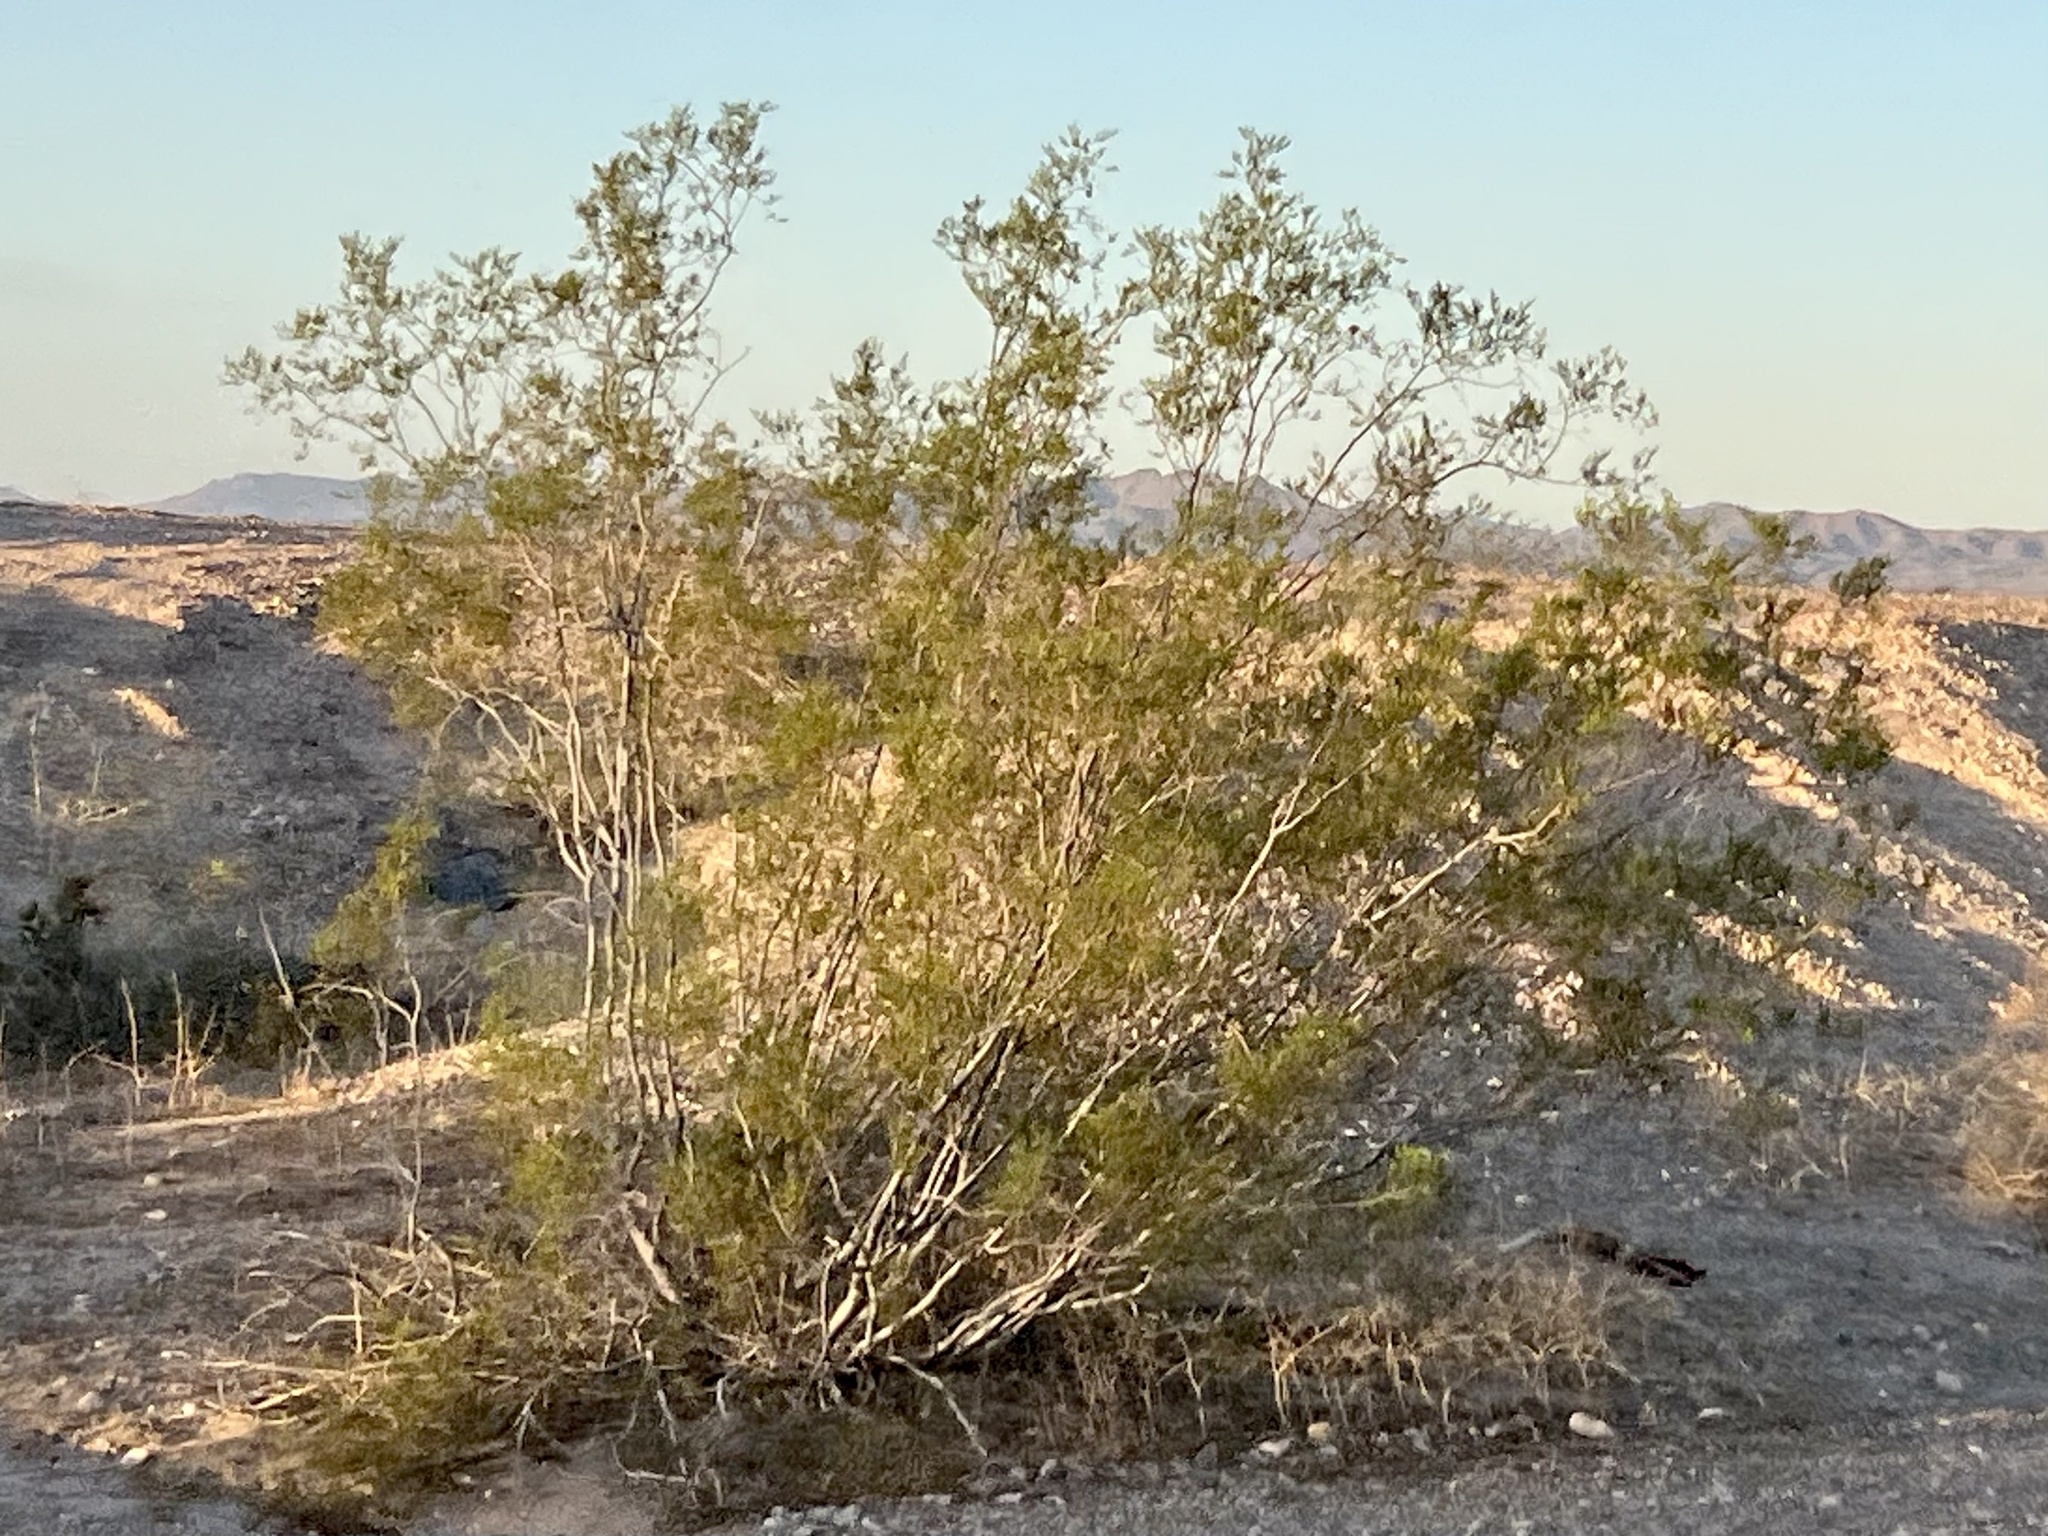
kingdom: Plantae
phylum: Tracheophyta
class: Magnoliopsida
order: Zygophyllales
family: Zygophyllaceae
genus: Larrea
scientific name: Larrea tridentata
